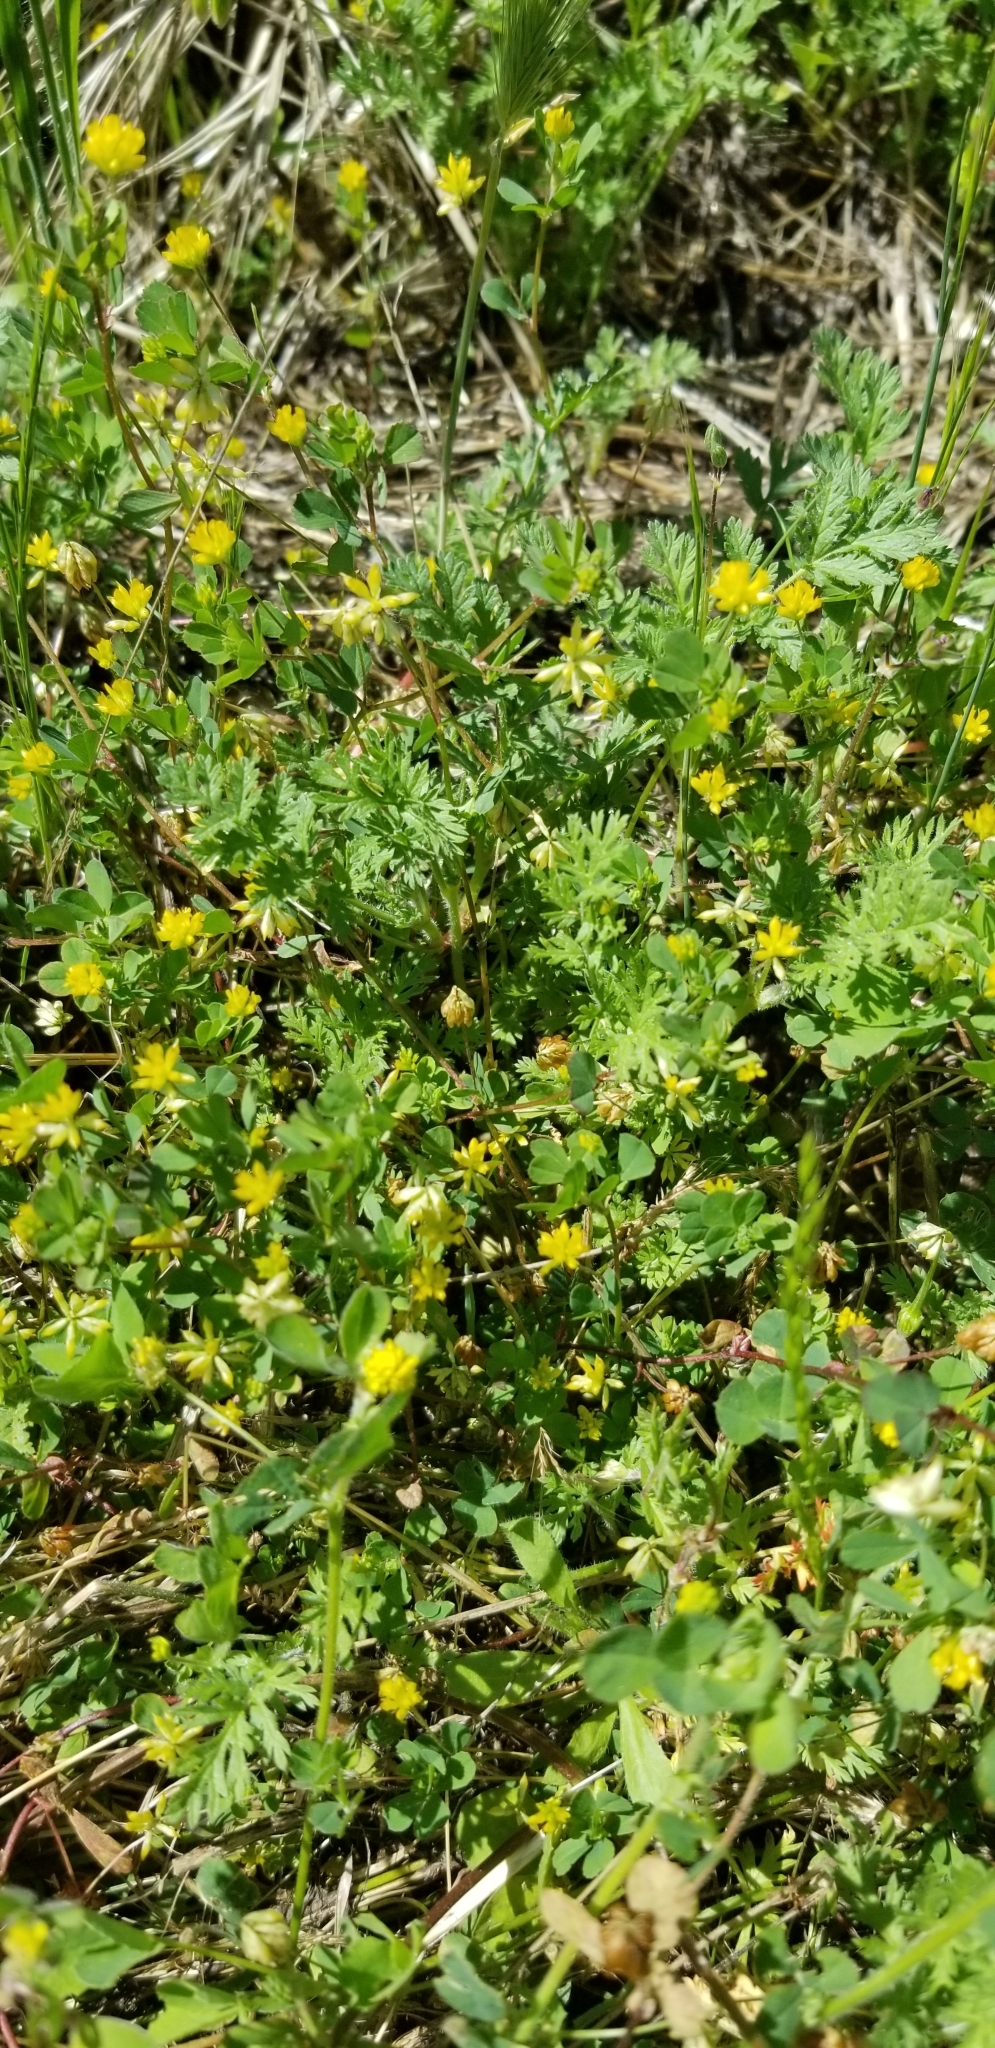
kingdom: Plantae
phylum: Tracheophyta
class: Magnoliopsida
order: Fabales
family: Fabaceae
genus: Medicago
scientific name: Medicago lupulina
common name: Black medick
